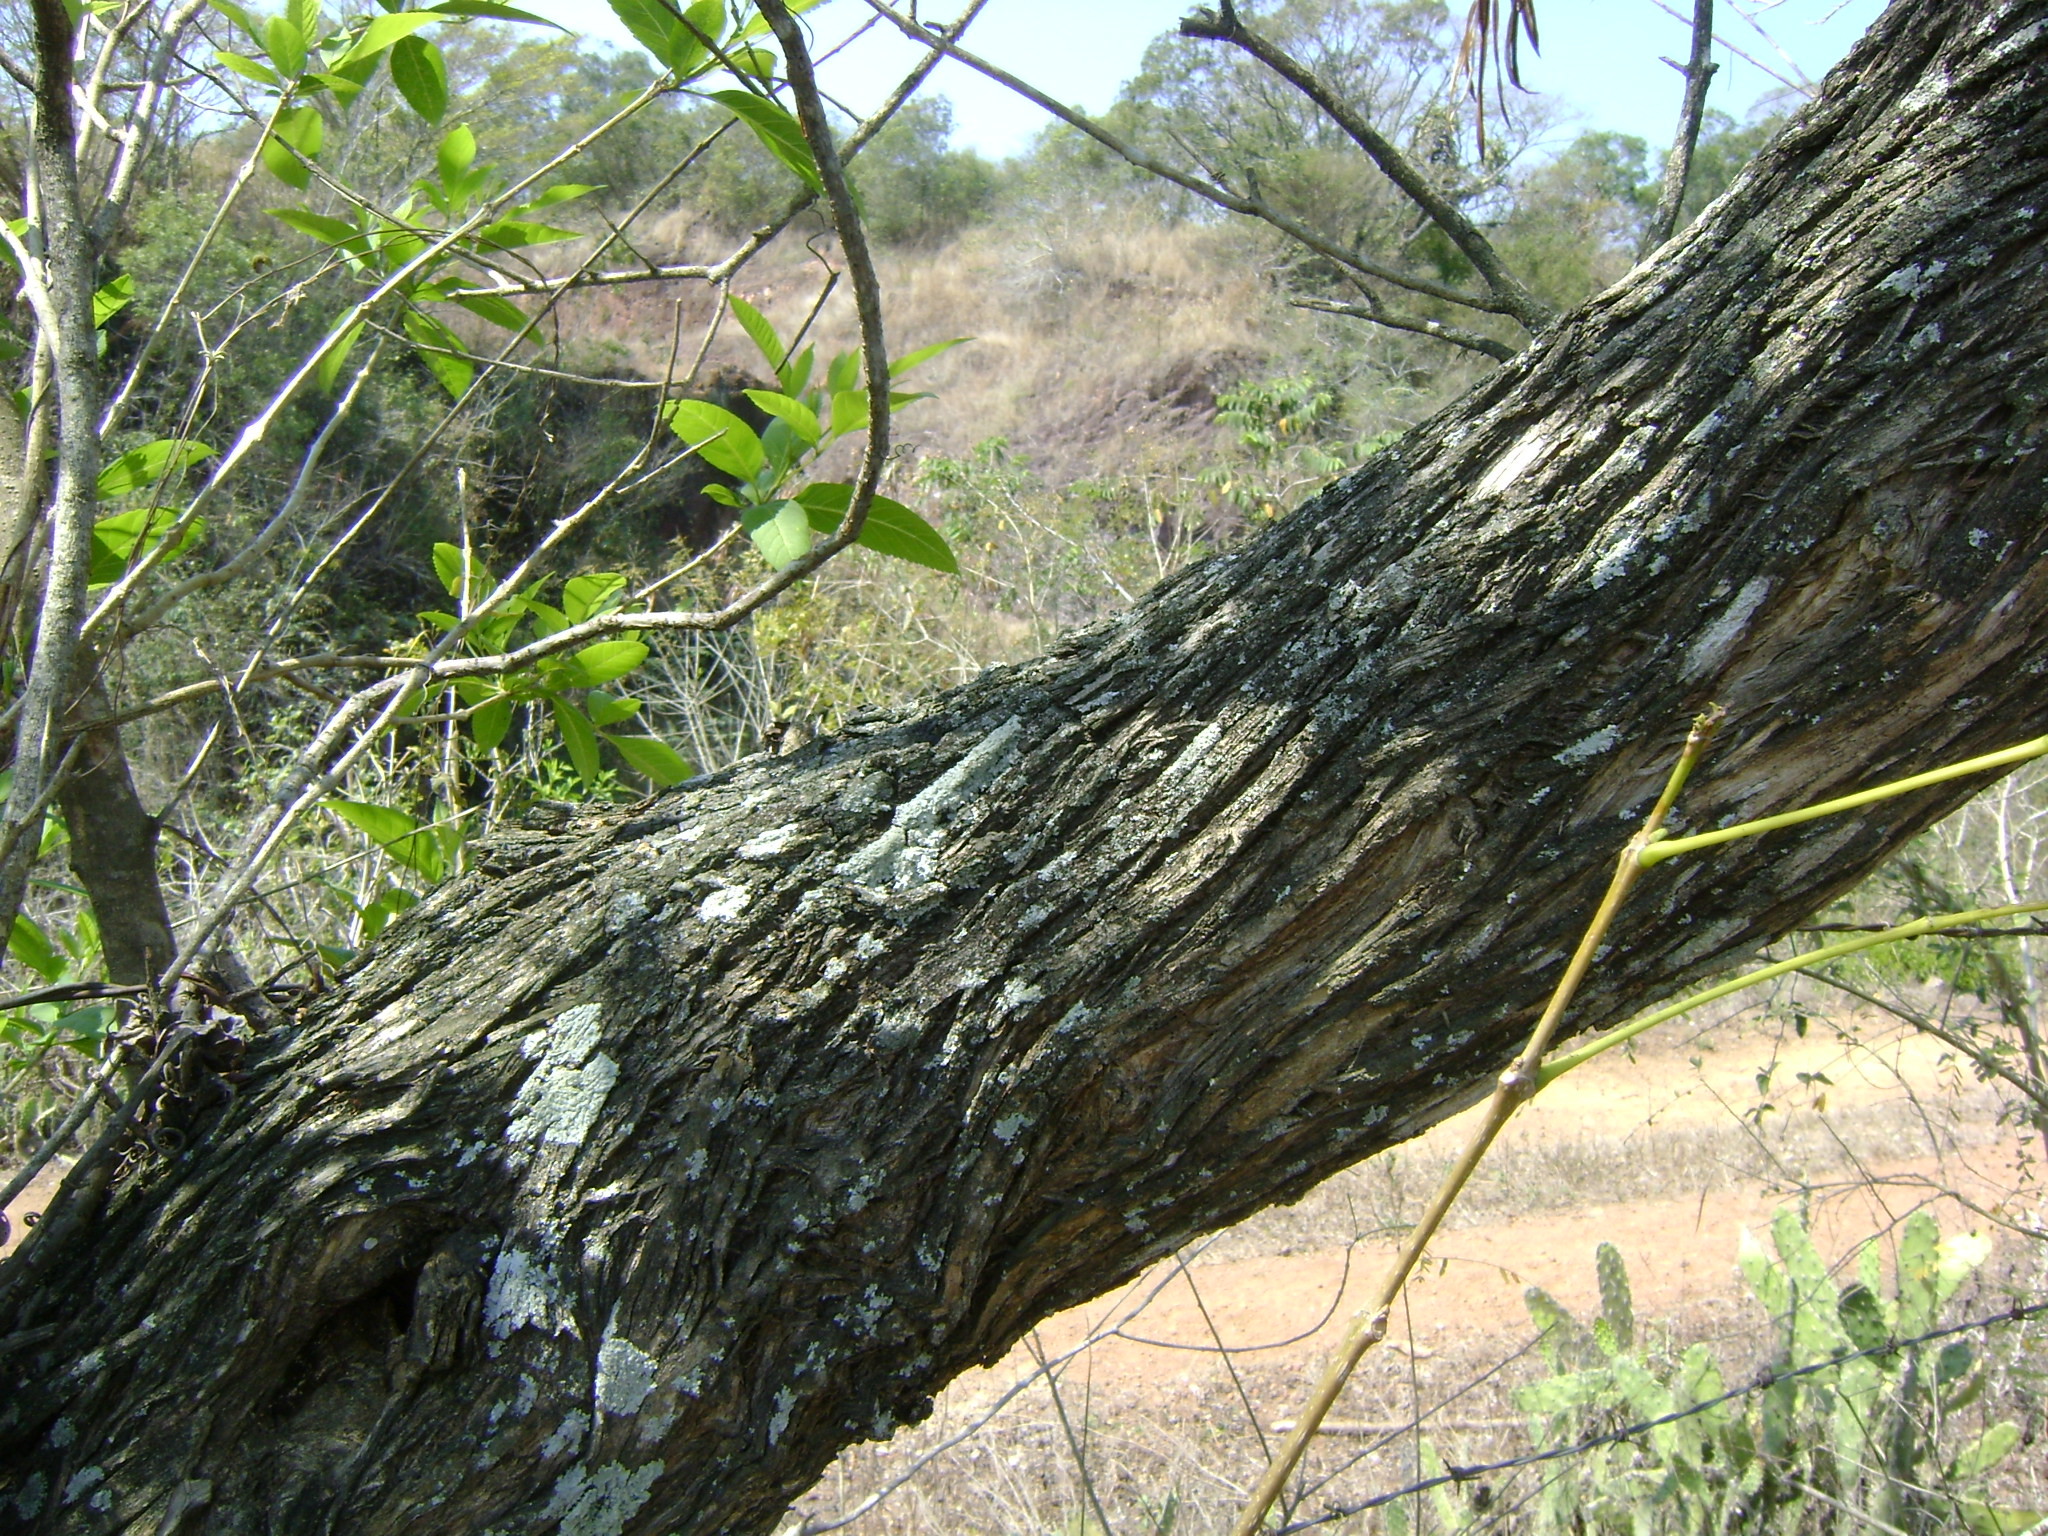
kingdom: Plantae
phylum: Tracheophyta
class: Magnoliopsida
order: Lamiales
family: Bignoniaceae
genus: Tecoma
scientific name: Tecoma stans
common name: Yellow trumpetbush
